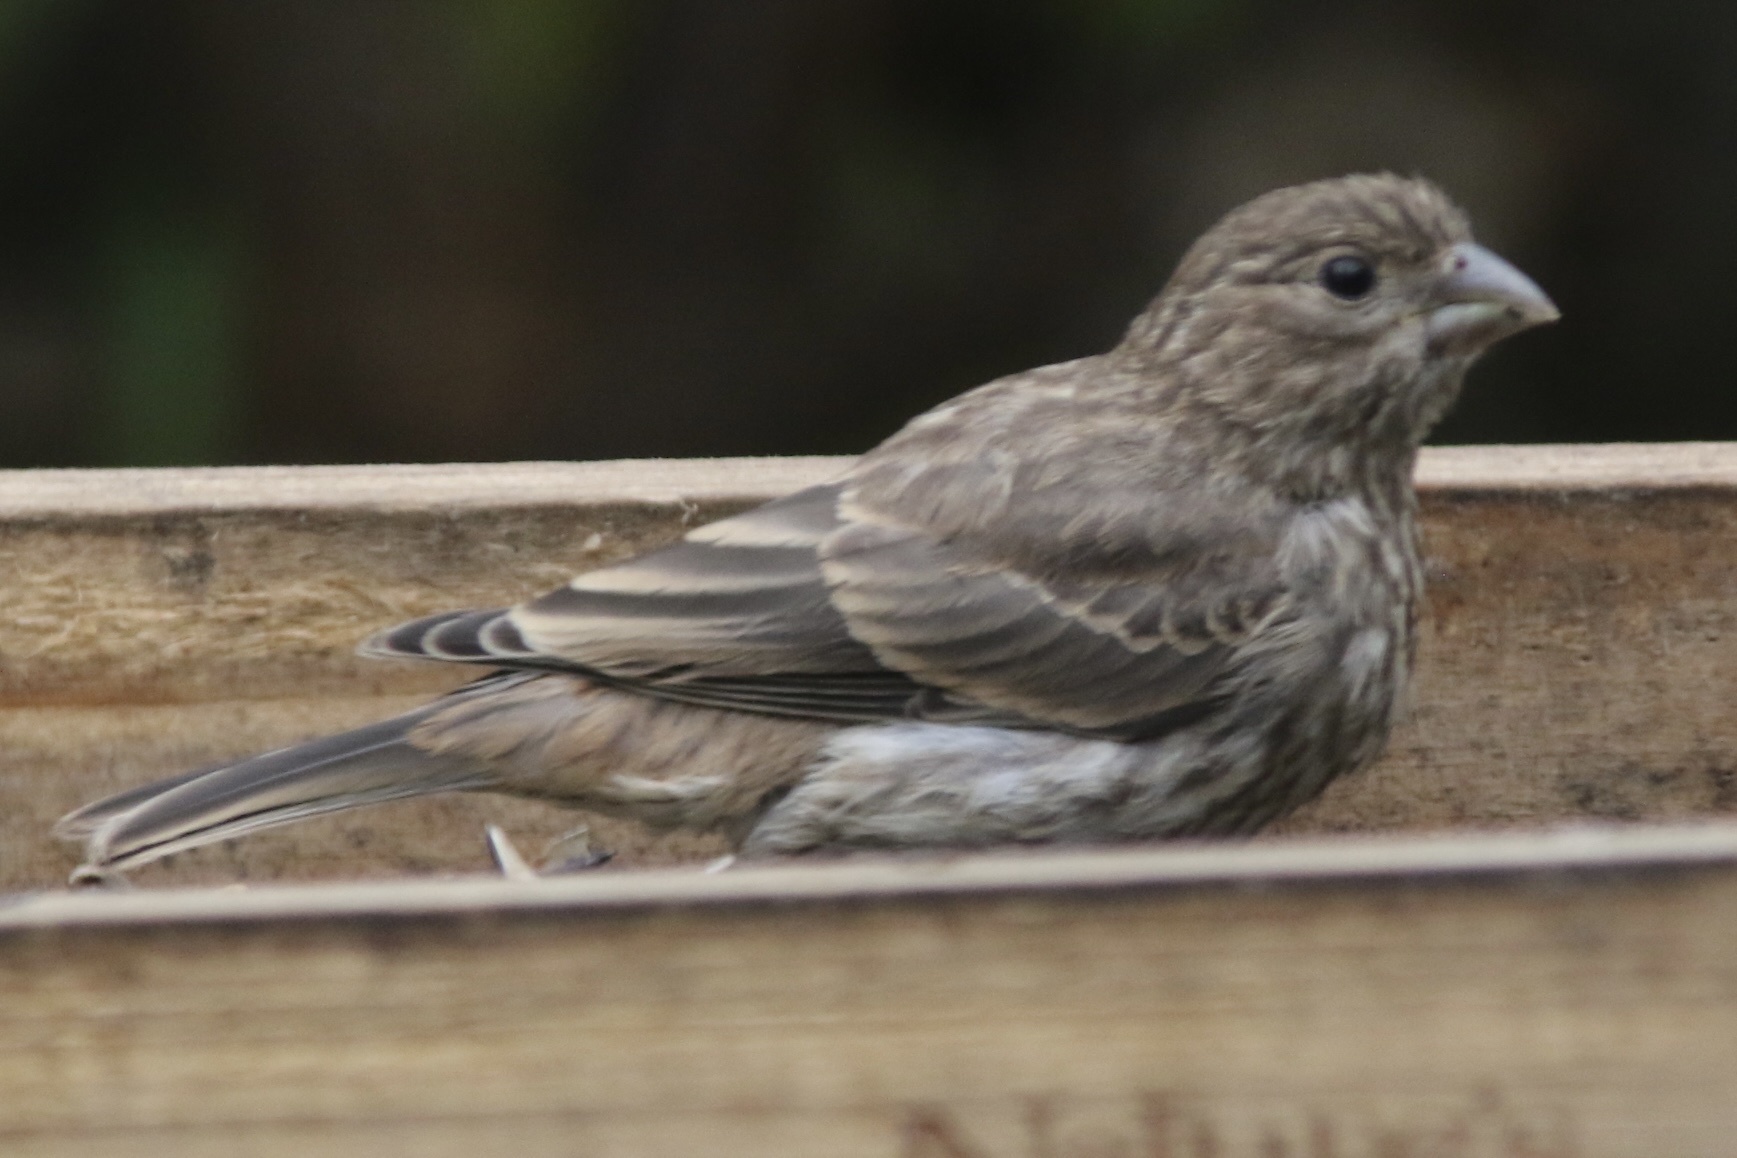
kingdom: Animalia
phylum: Chordata
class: Aves
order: Passeriformes
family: Fringillidae
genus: Haemorhous
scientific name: Haemorhous mexicanus
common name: House finch
